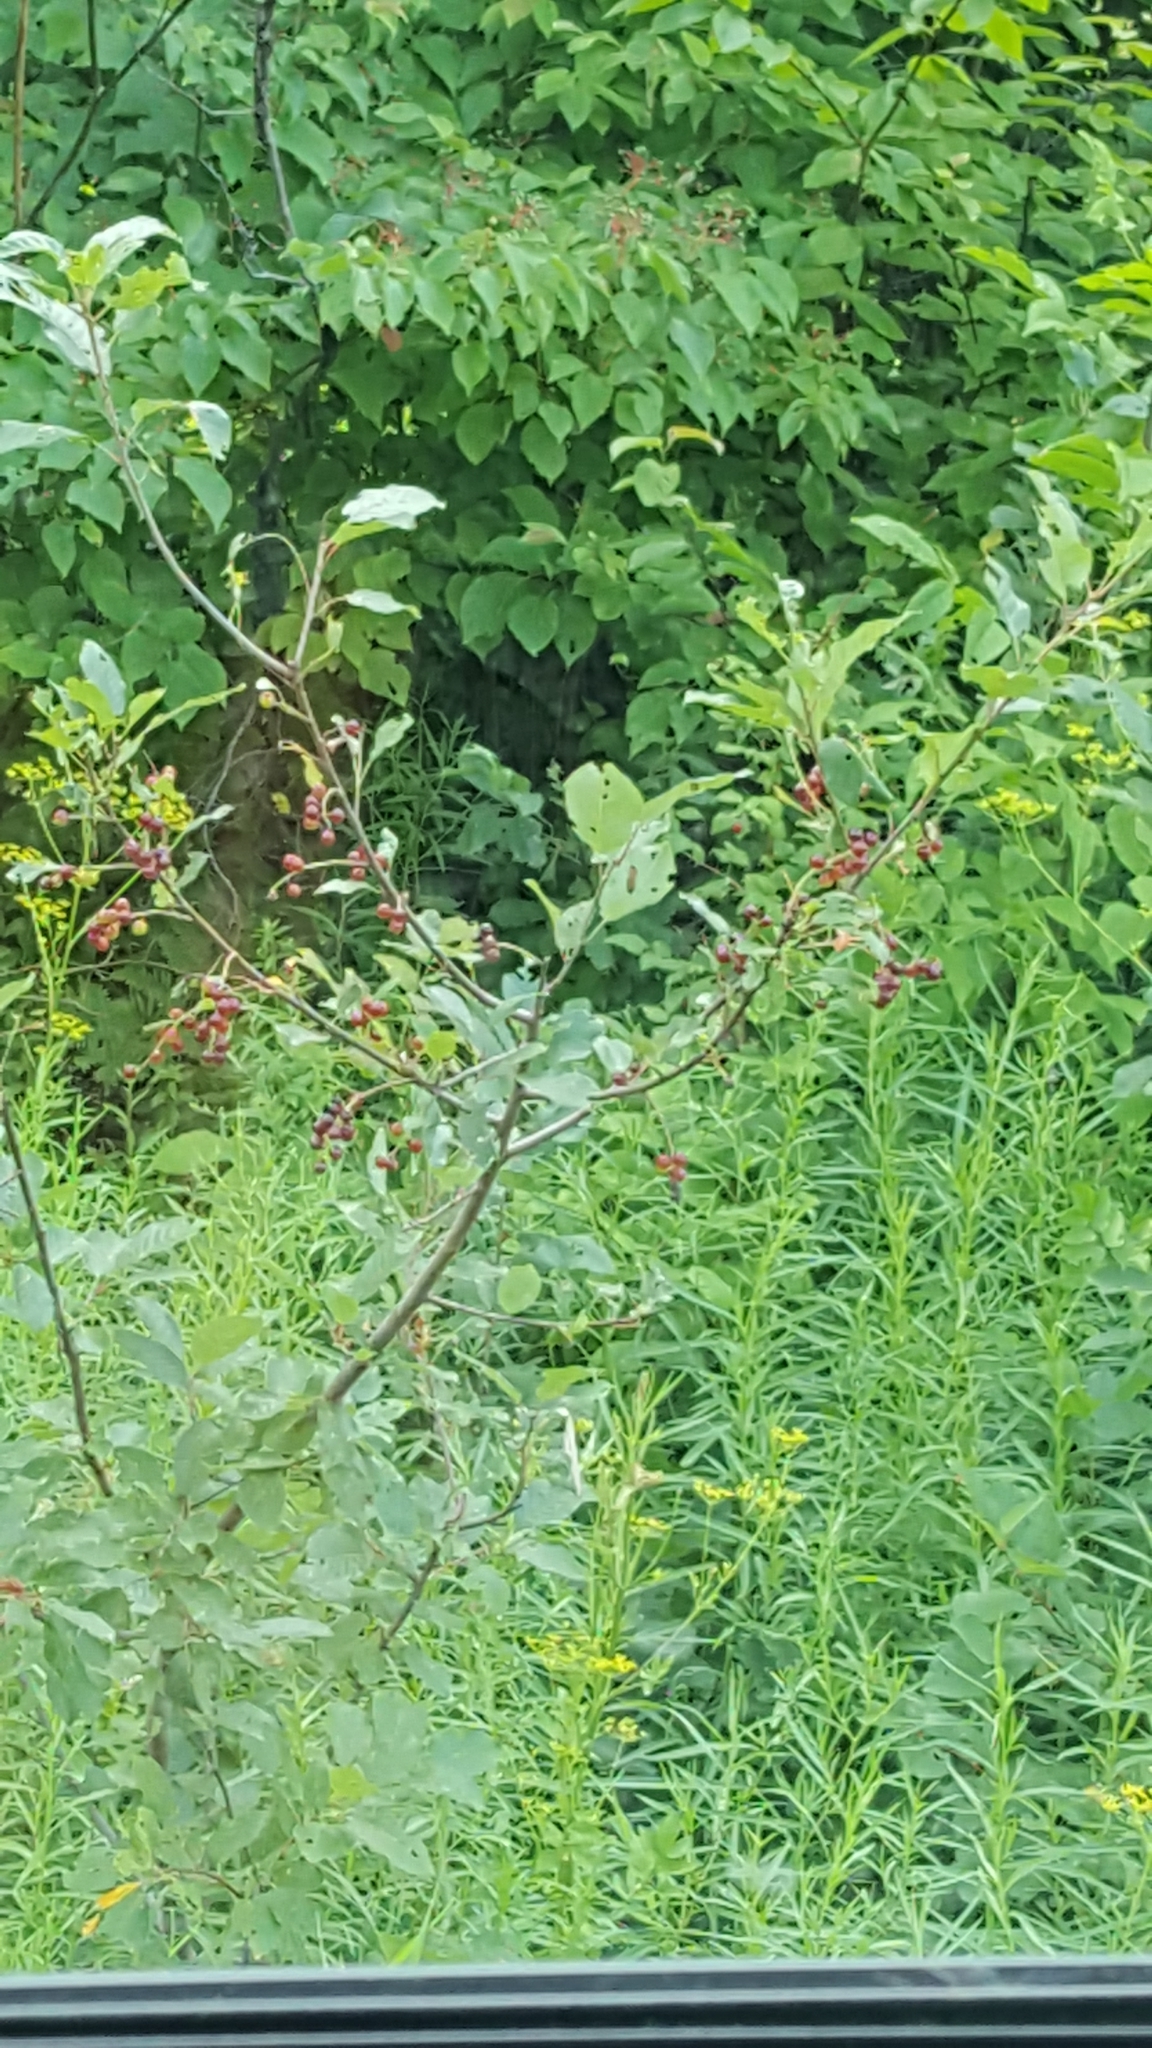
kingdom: Plantae
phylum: Tracheophyta
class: Magnoliopsida
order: Rosales
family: Rosaceae
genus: Prunus
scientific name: Prunus virginiana
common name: Chokecherry
